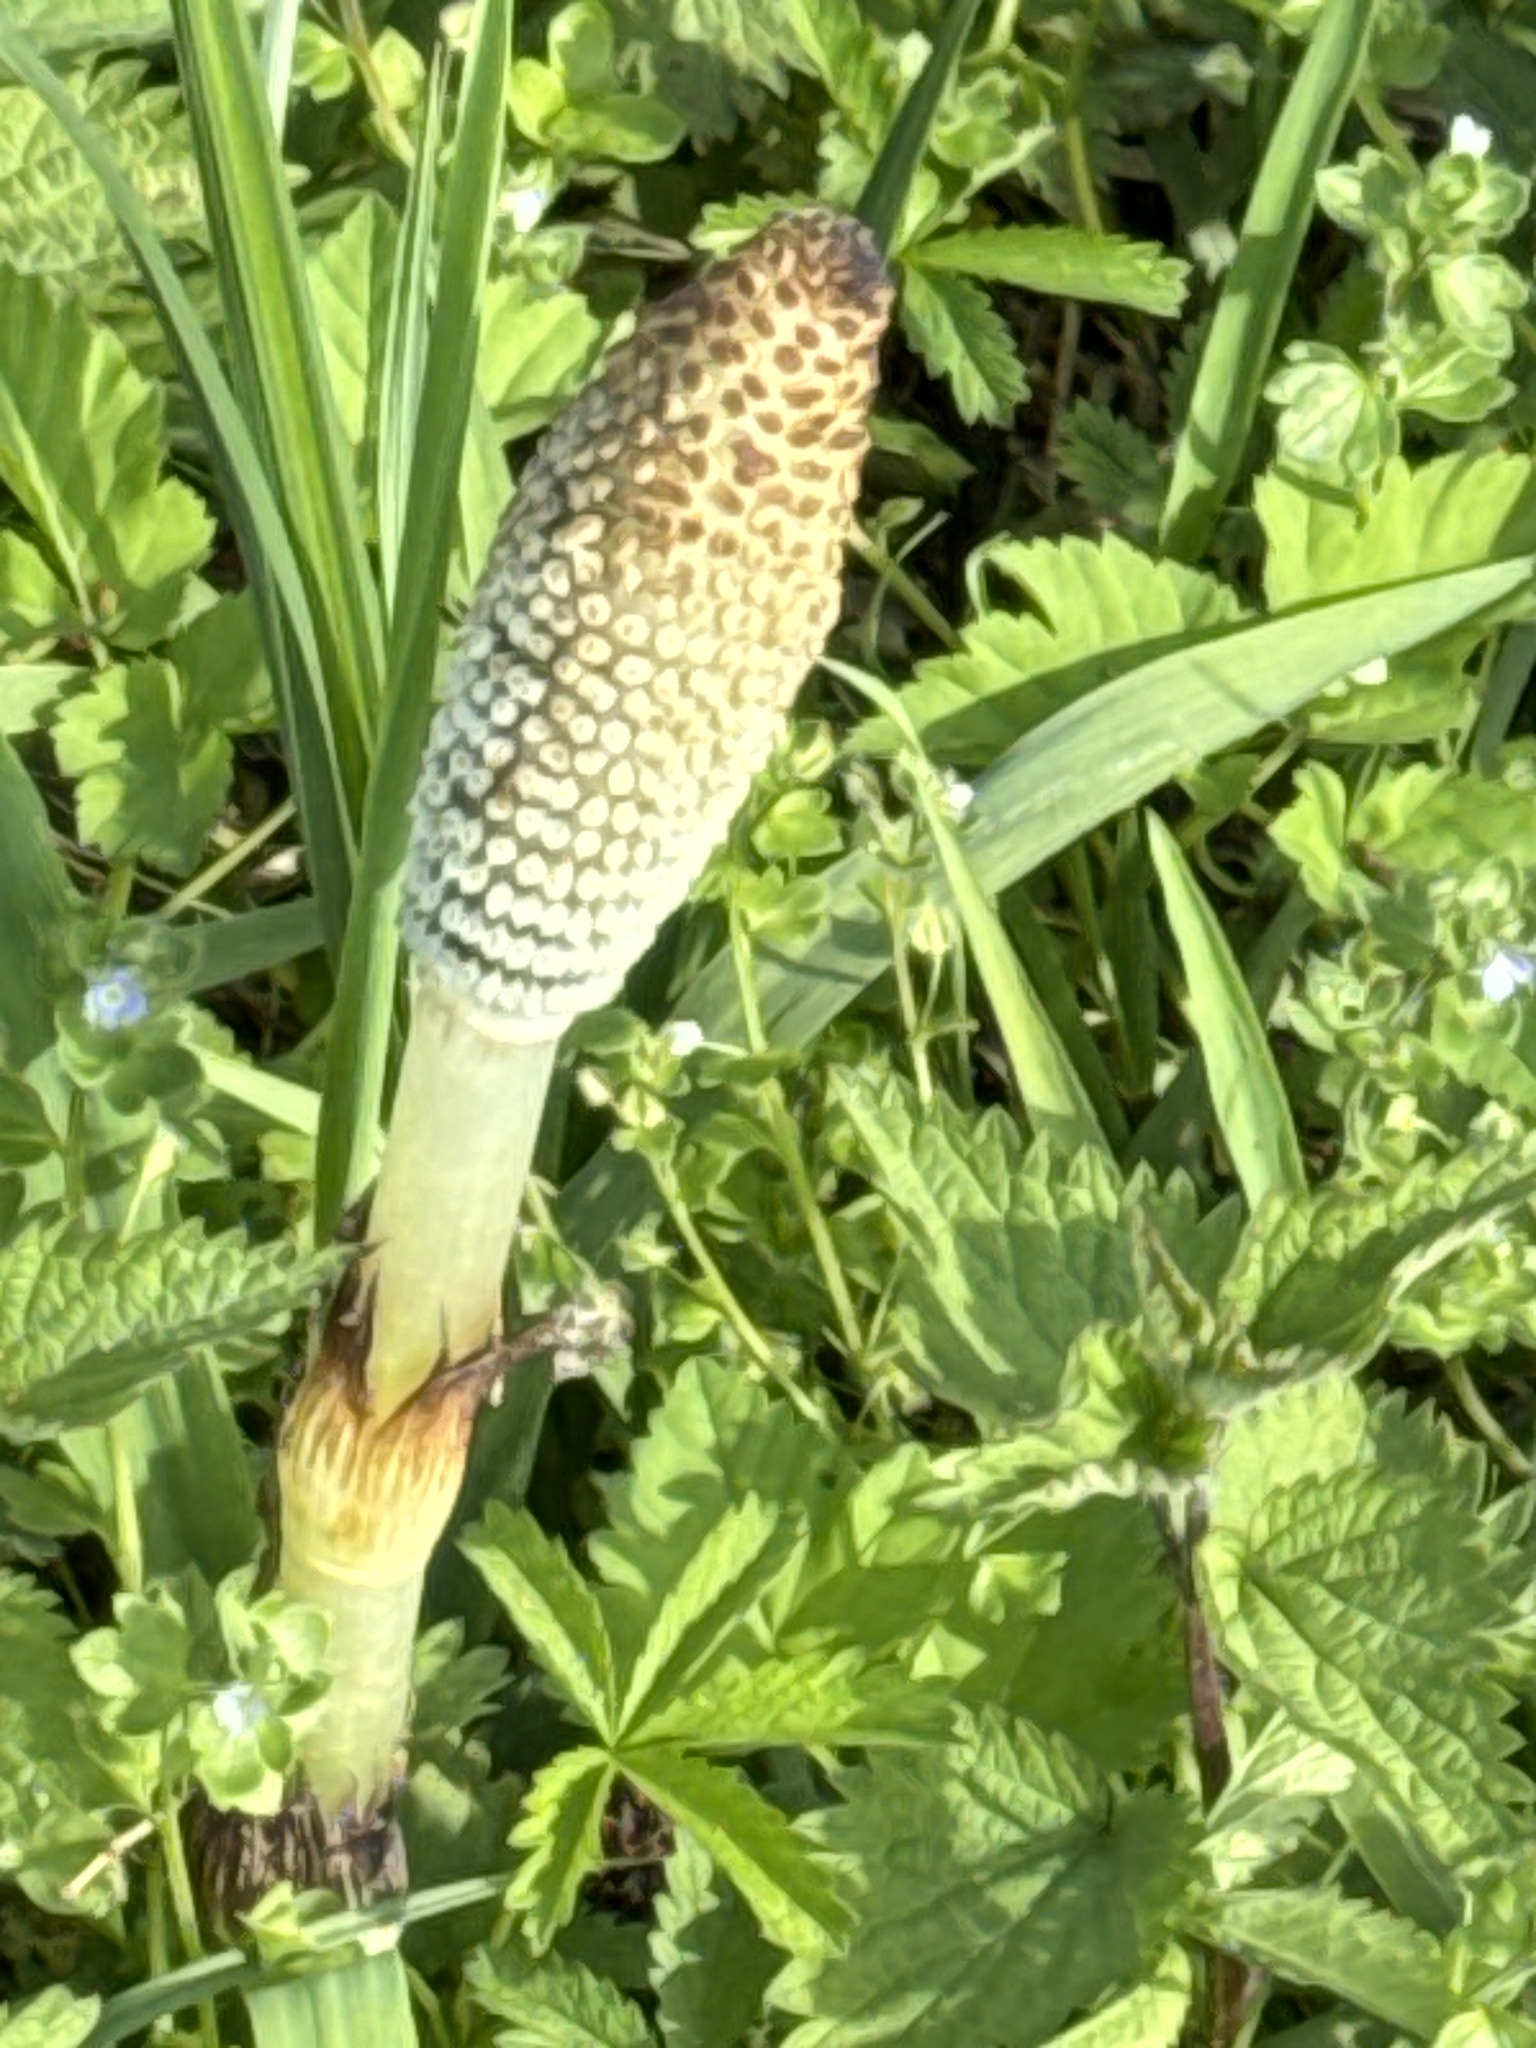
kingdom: Plantae
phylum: Tracheophyta
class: Polypodiopsida
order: Equisetales
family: Equisetaceae
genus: Equisetum
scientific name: Equisetum telmateia
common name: Great horsetail
